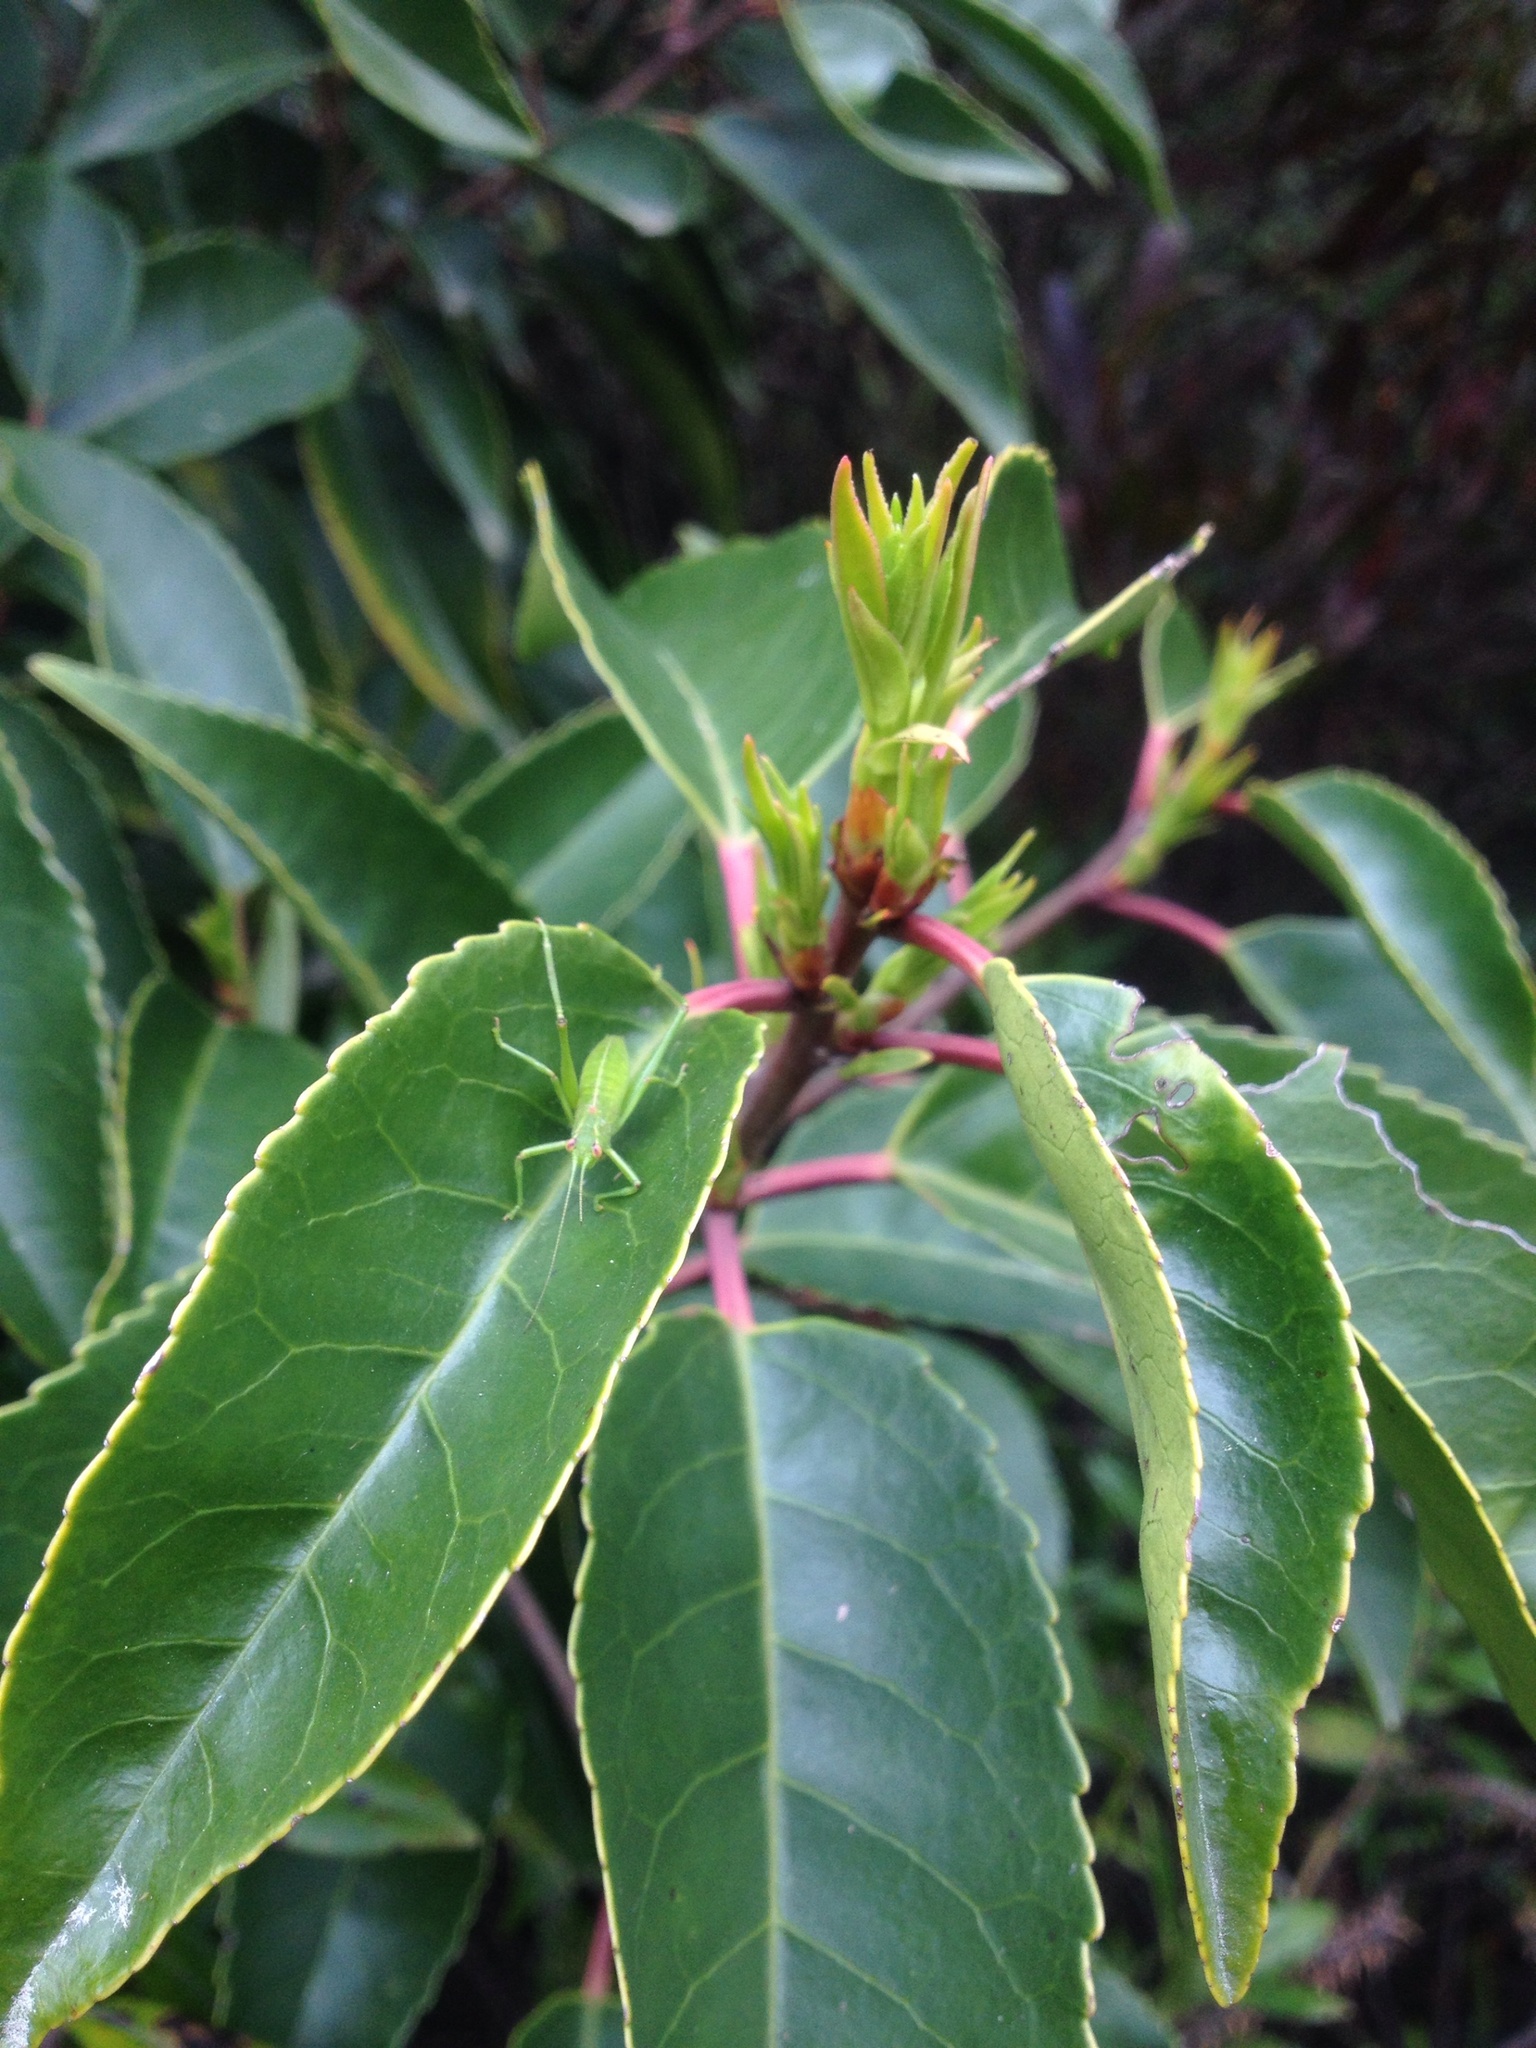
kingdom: Animalia
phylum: Arthropoda
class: Insecta
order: Orthoptera
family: Tettigoniidae
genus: Caedicia
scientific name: Caedicia simplex
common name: Common garden katydid
